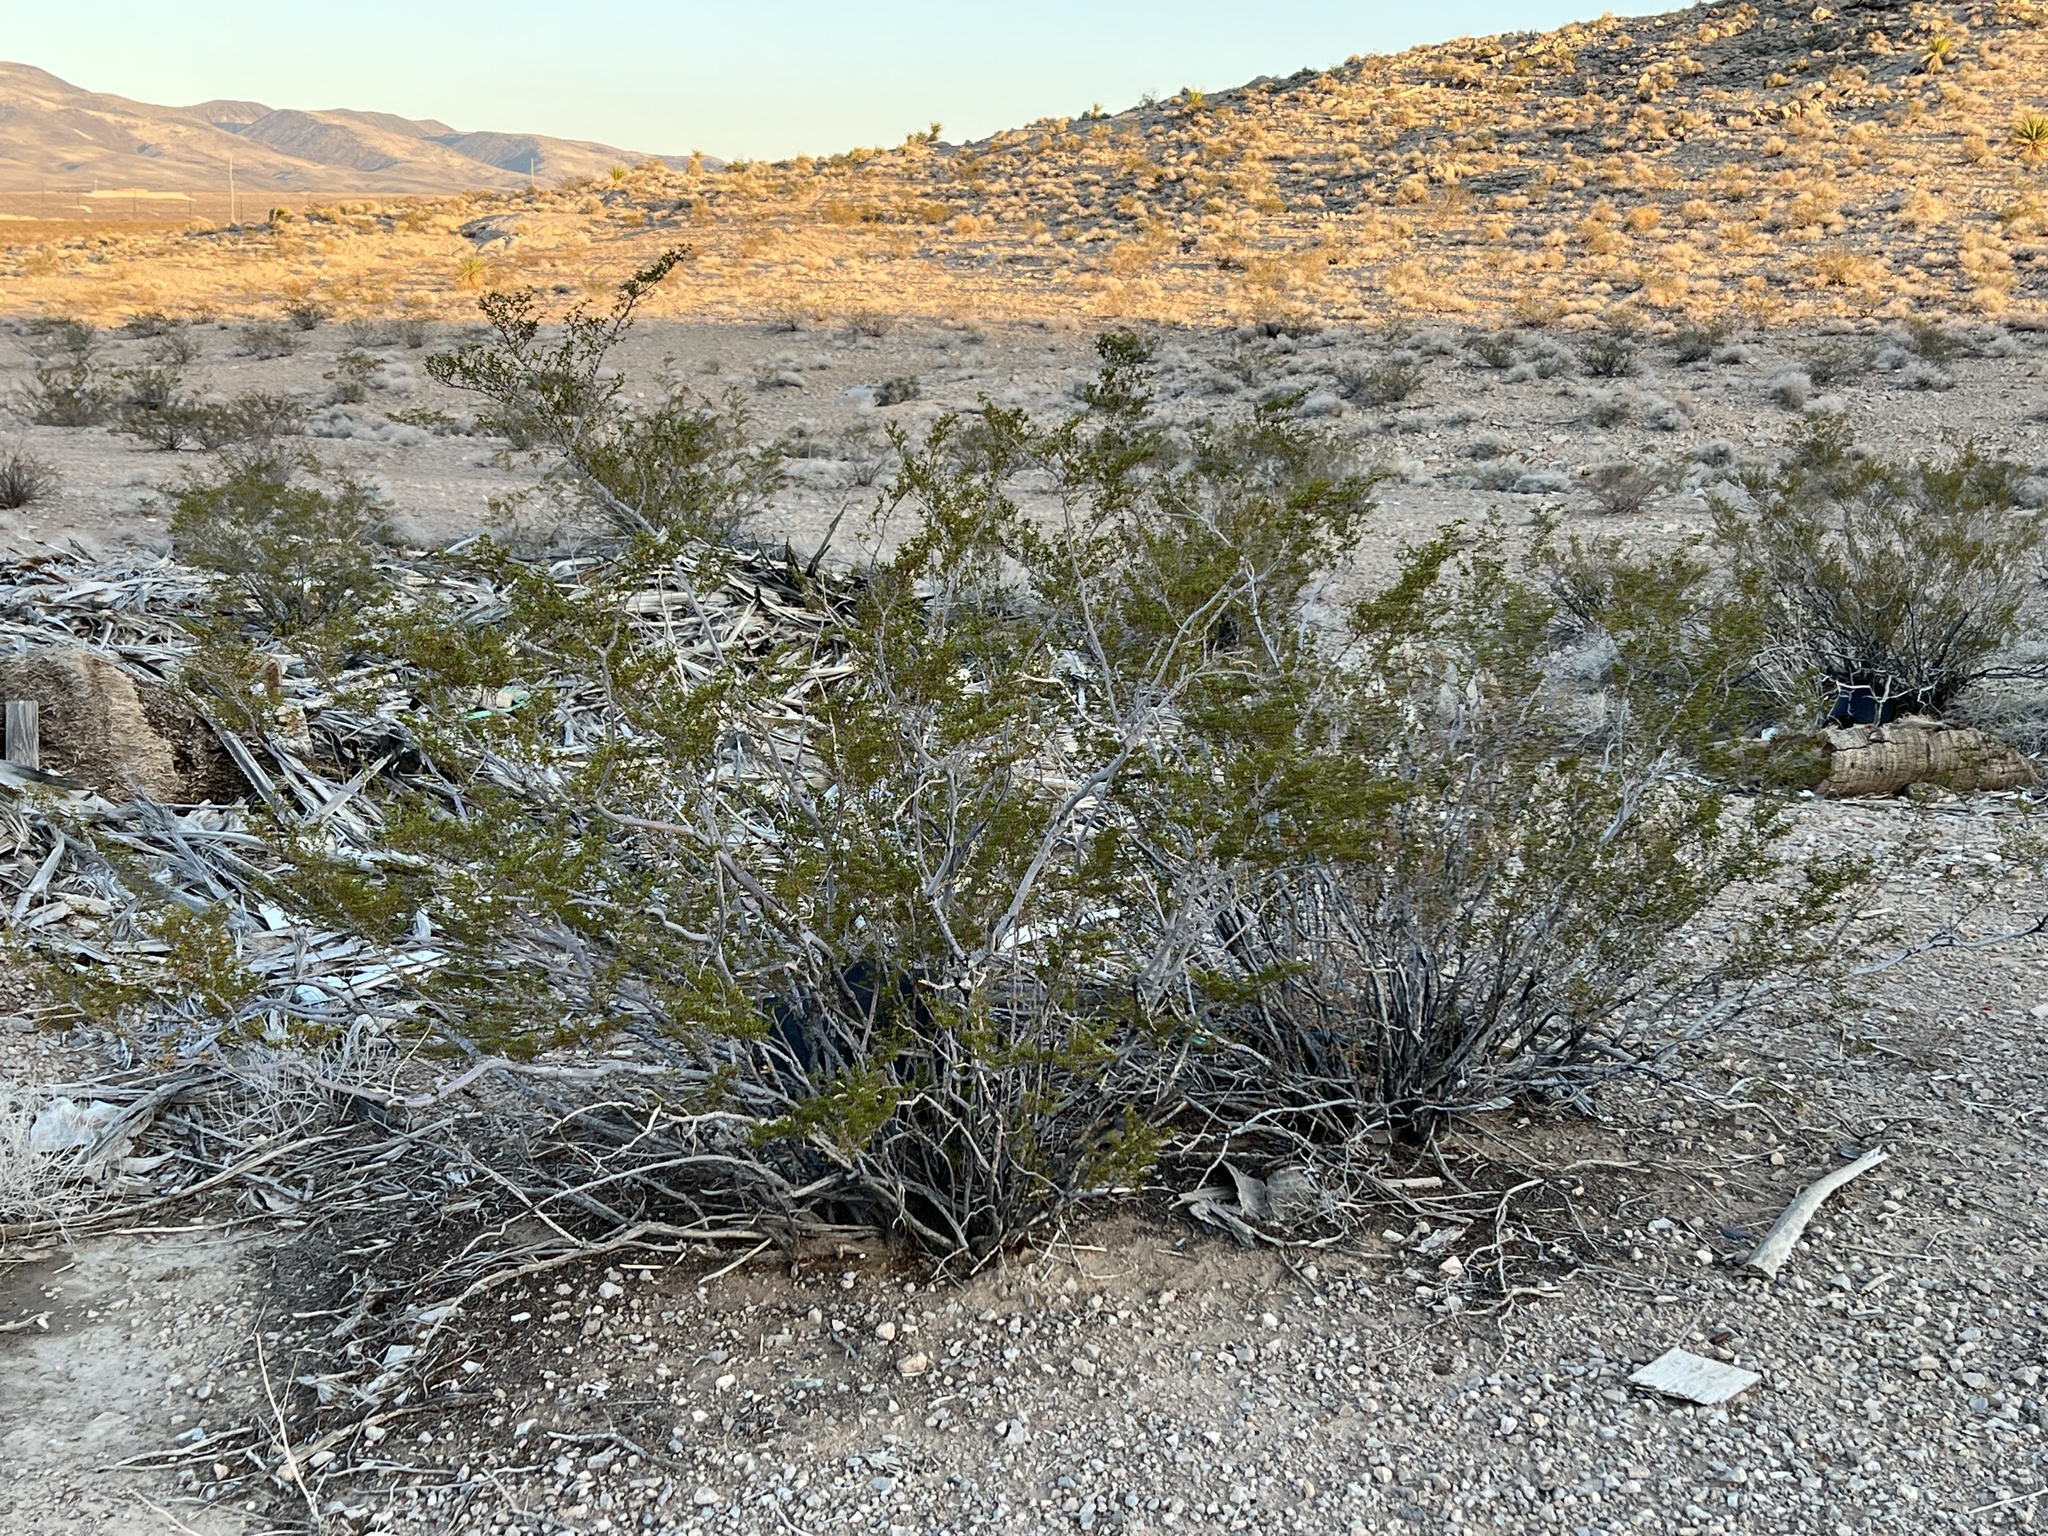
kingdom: Plantae
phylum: Tracheophyta
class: Magnoliopsida
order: Zygophyllales
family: Zygophyllaceae
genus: Larrea
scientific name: Larrea tridentata
